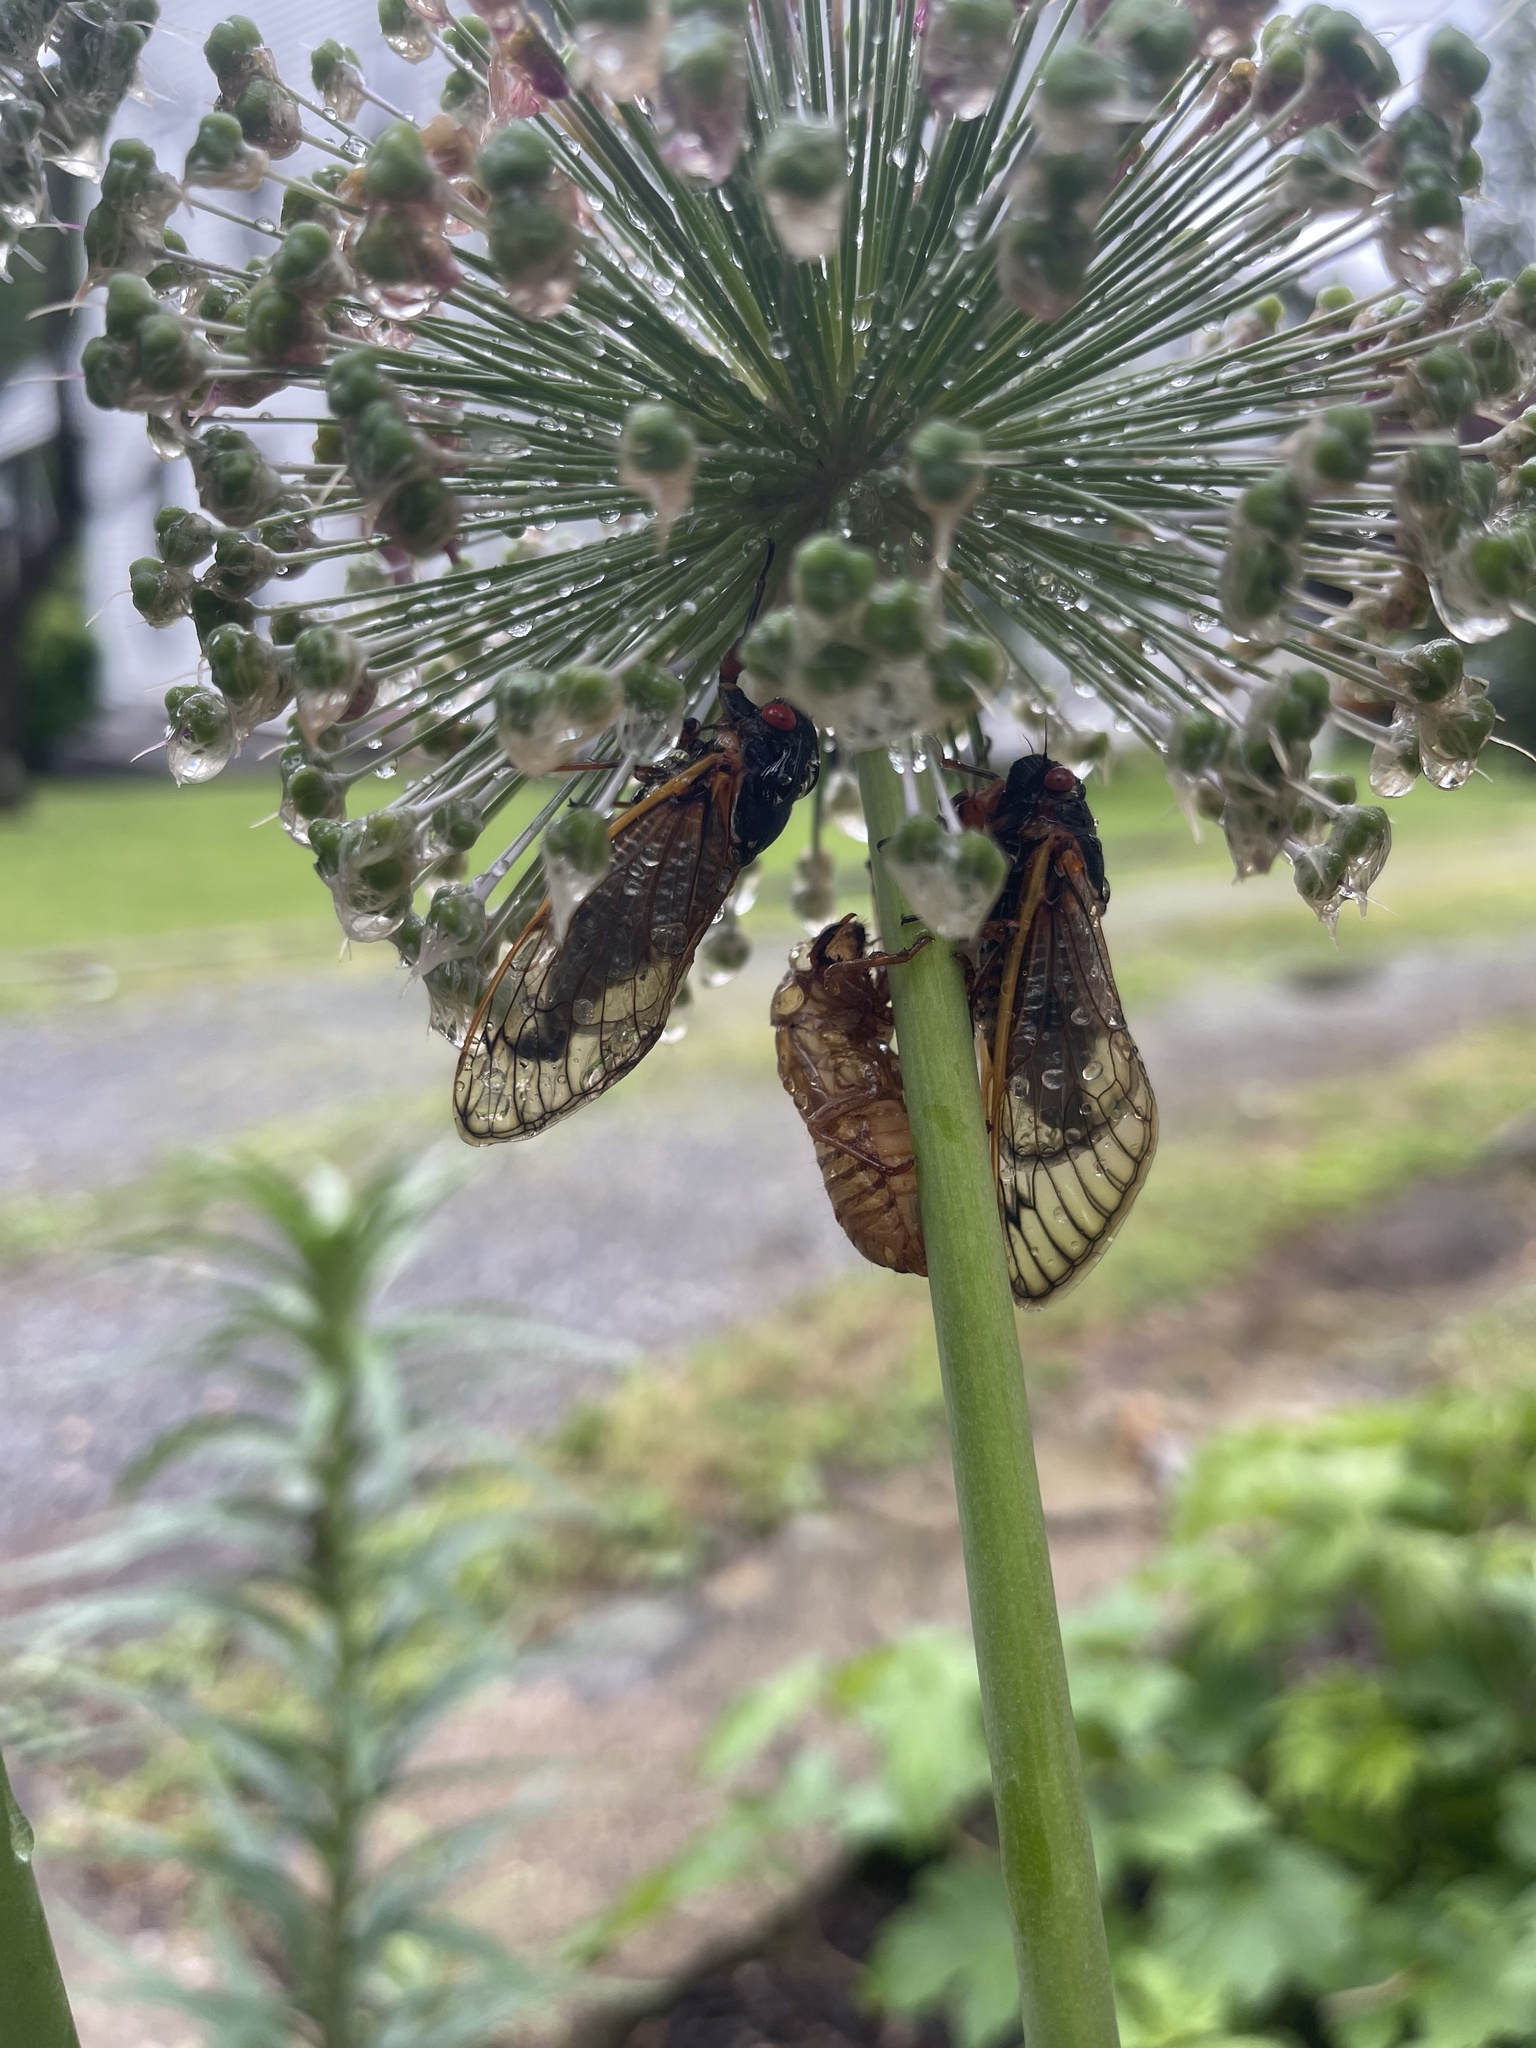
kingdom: Animalia
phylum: Arthropoda
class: Insecta
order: Hemiptera
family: Cicadidae
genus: Magicicada
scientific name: Magicicada septendecim
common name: Periodical cicada
